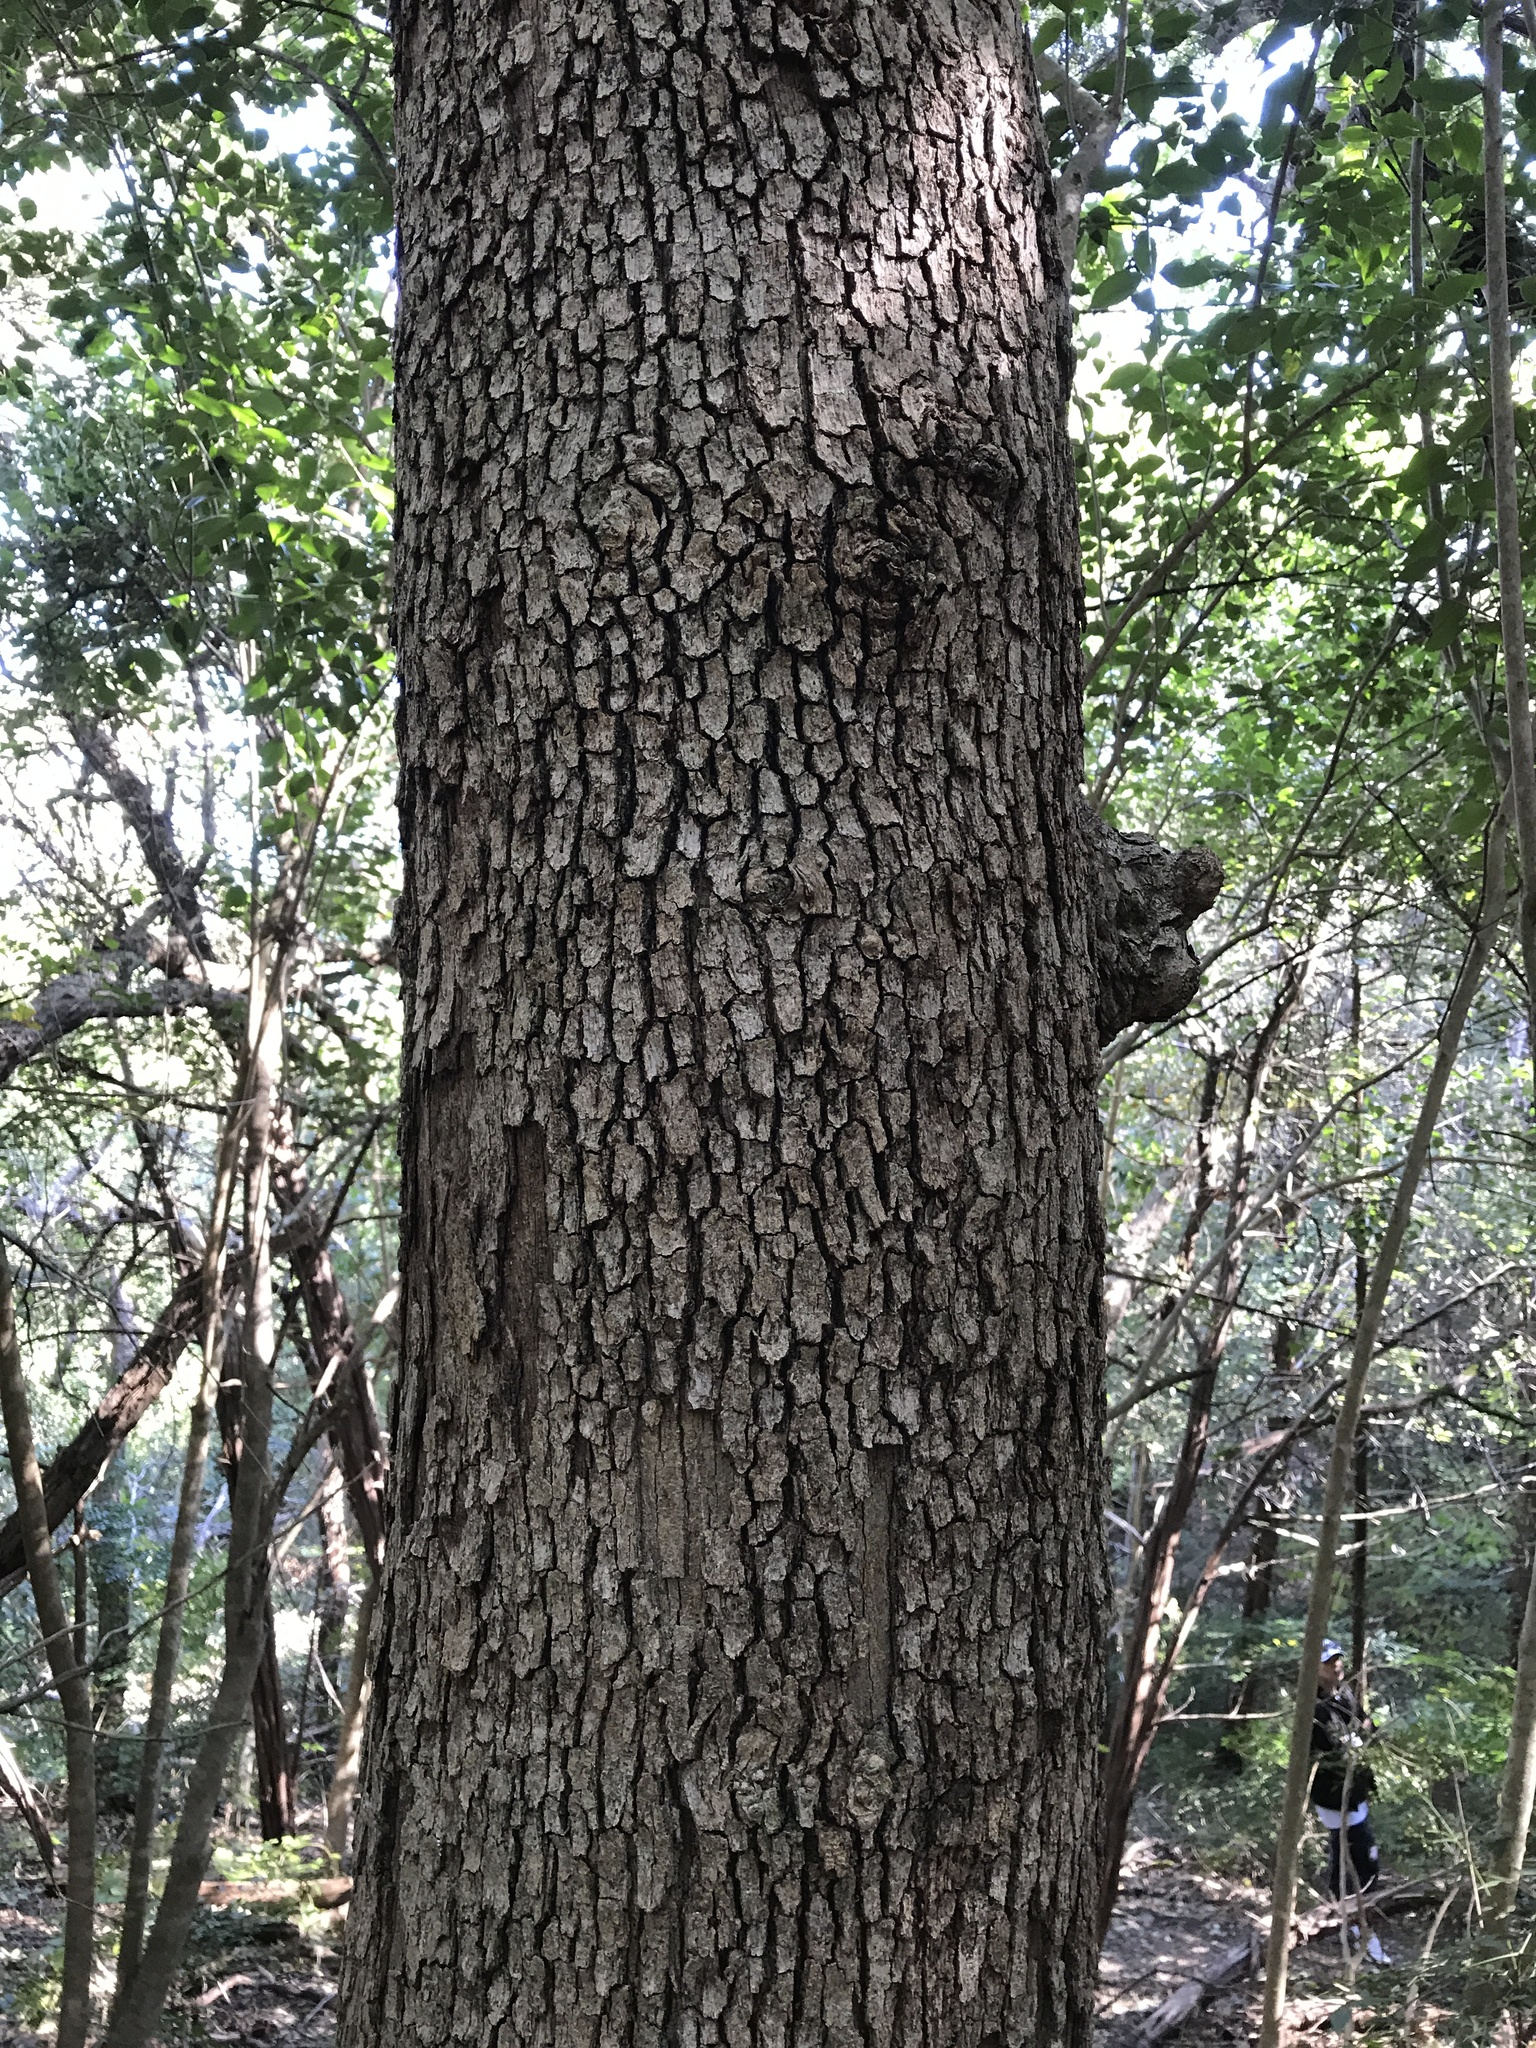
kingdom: Plantae
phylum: Tracheophyta
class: Magnoliopsida
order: Fagales
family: Fagaceae
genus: Quercus
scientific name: Quercus sinuata
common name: Durand oak
